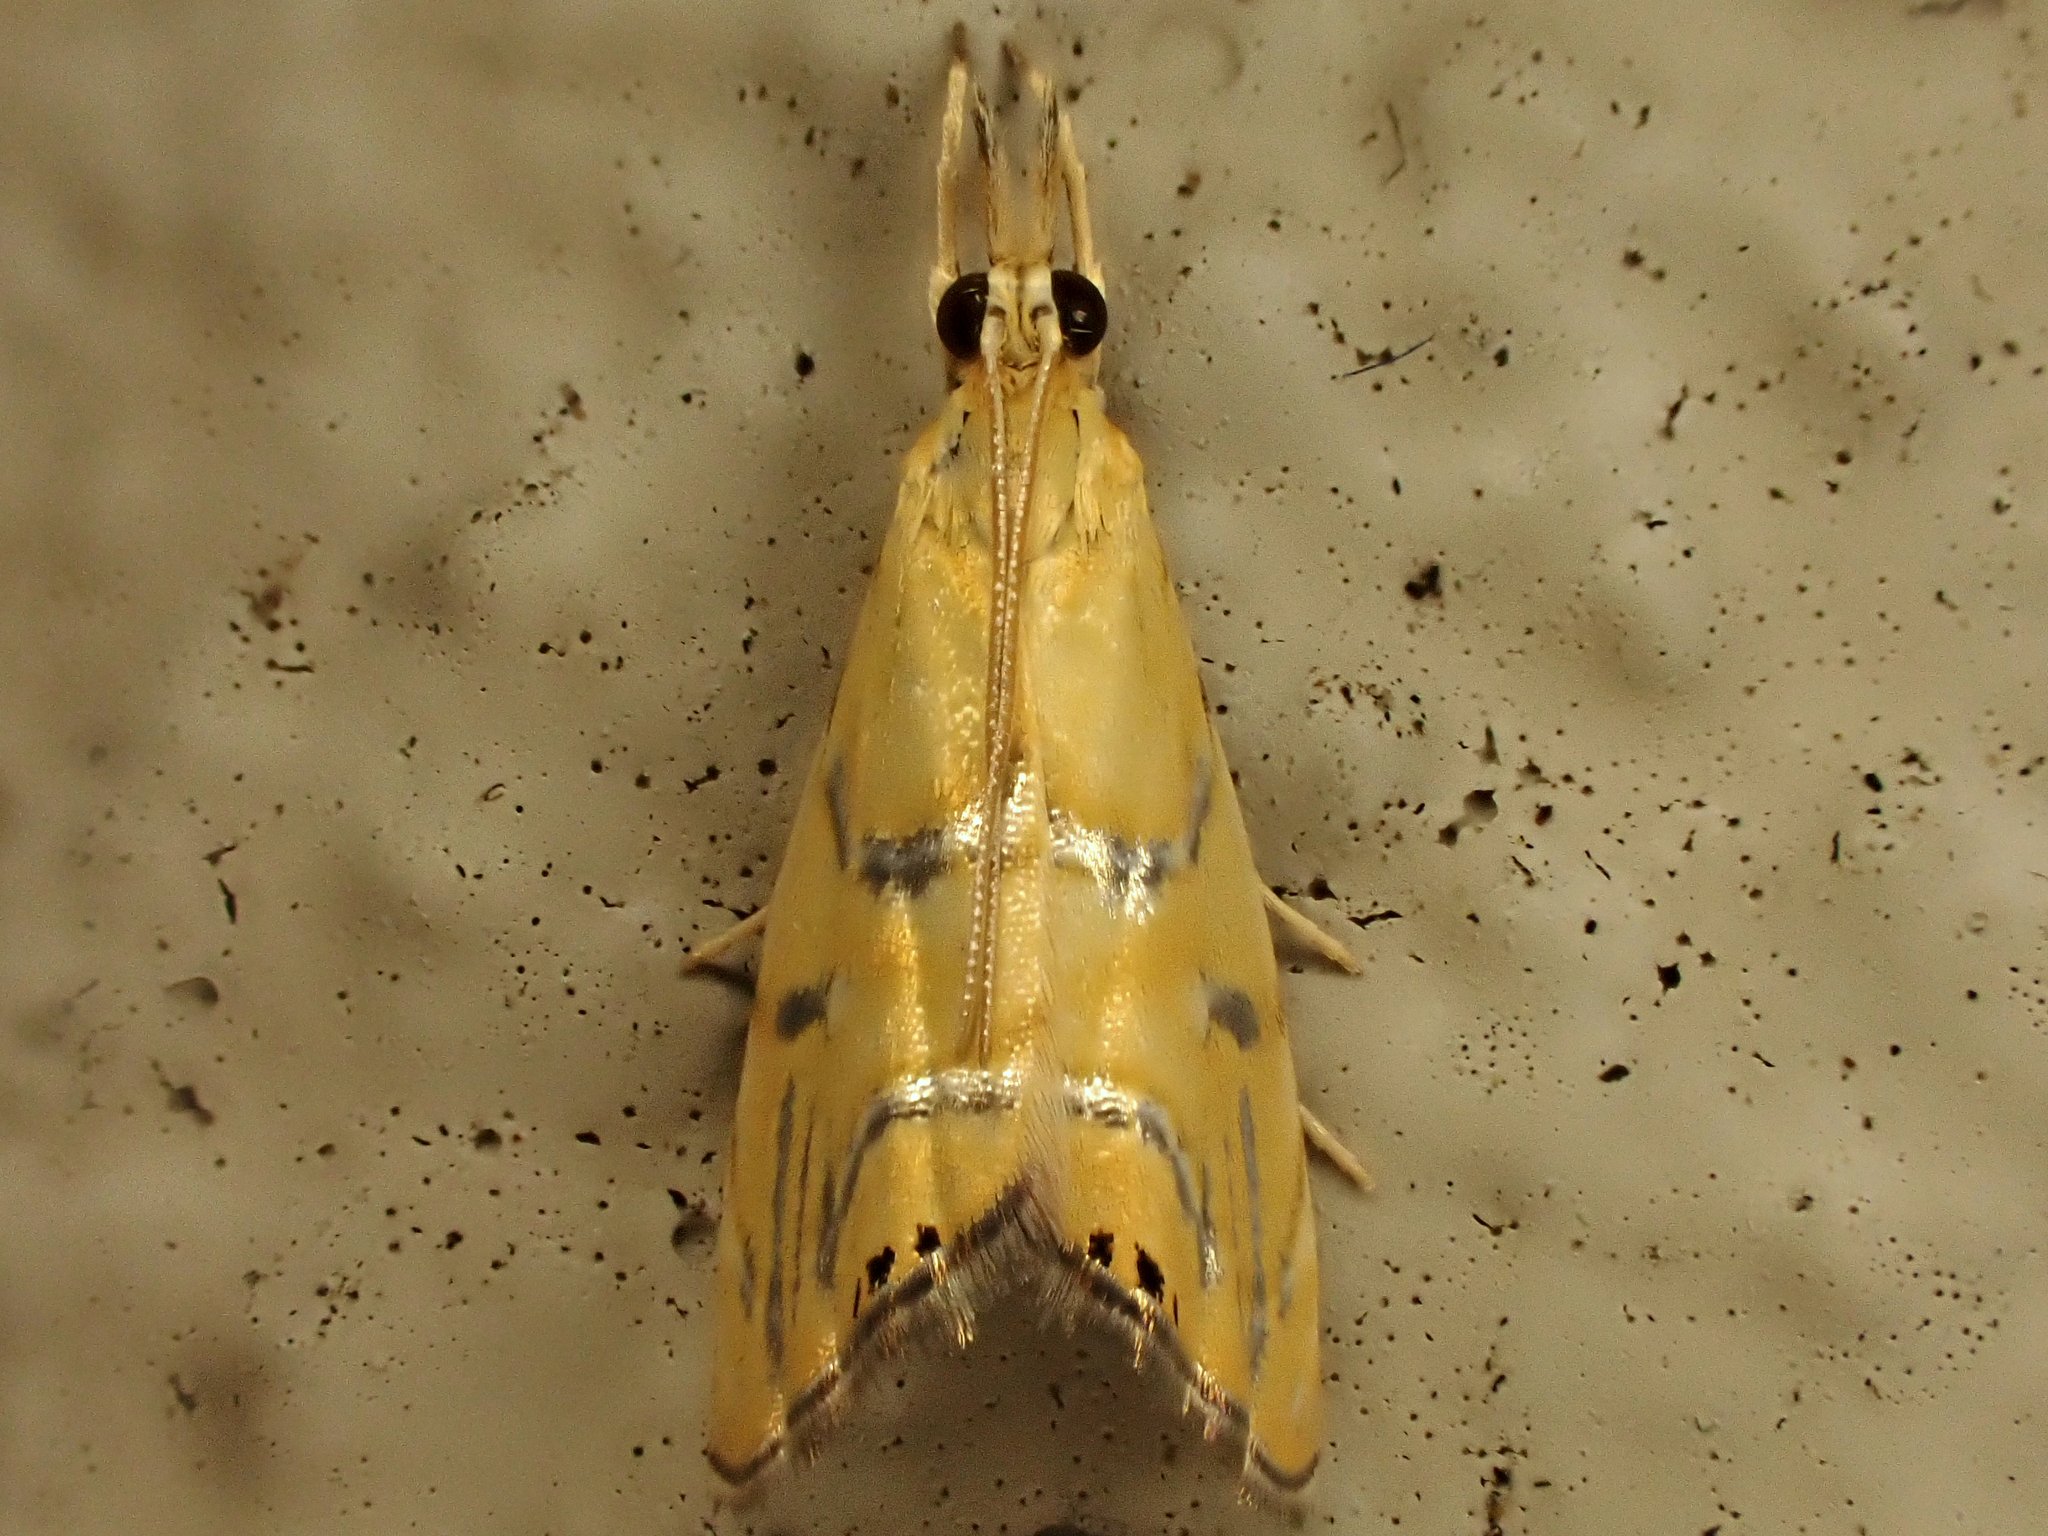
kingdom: Animalia
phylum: Arthropoda
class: Insecta
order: Lepidoptera
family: Crambidae
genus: Glaucocharis
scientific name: Glaucocharis auriscriptella
